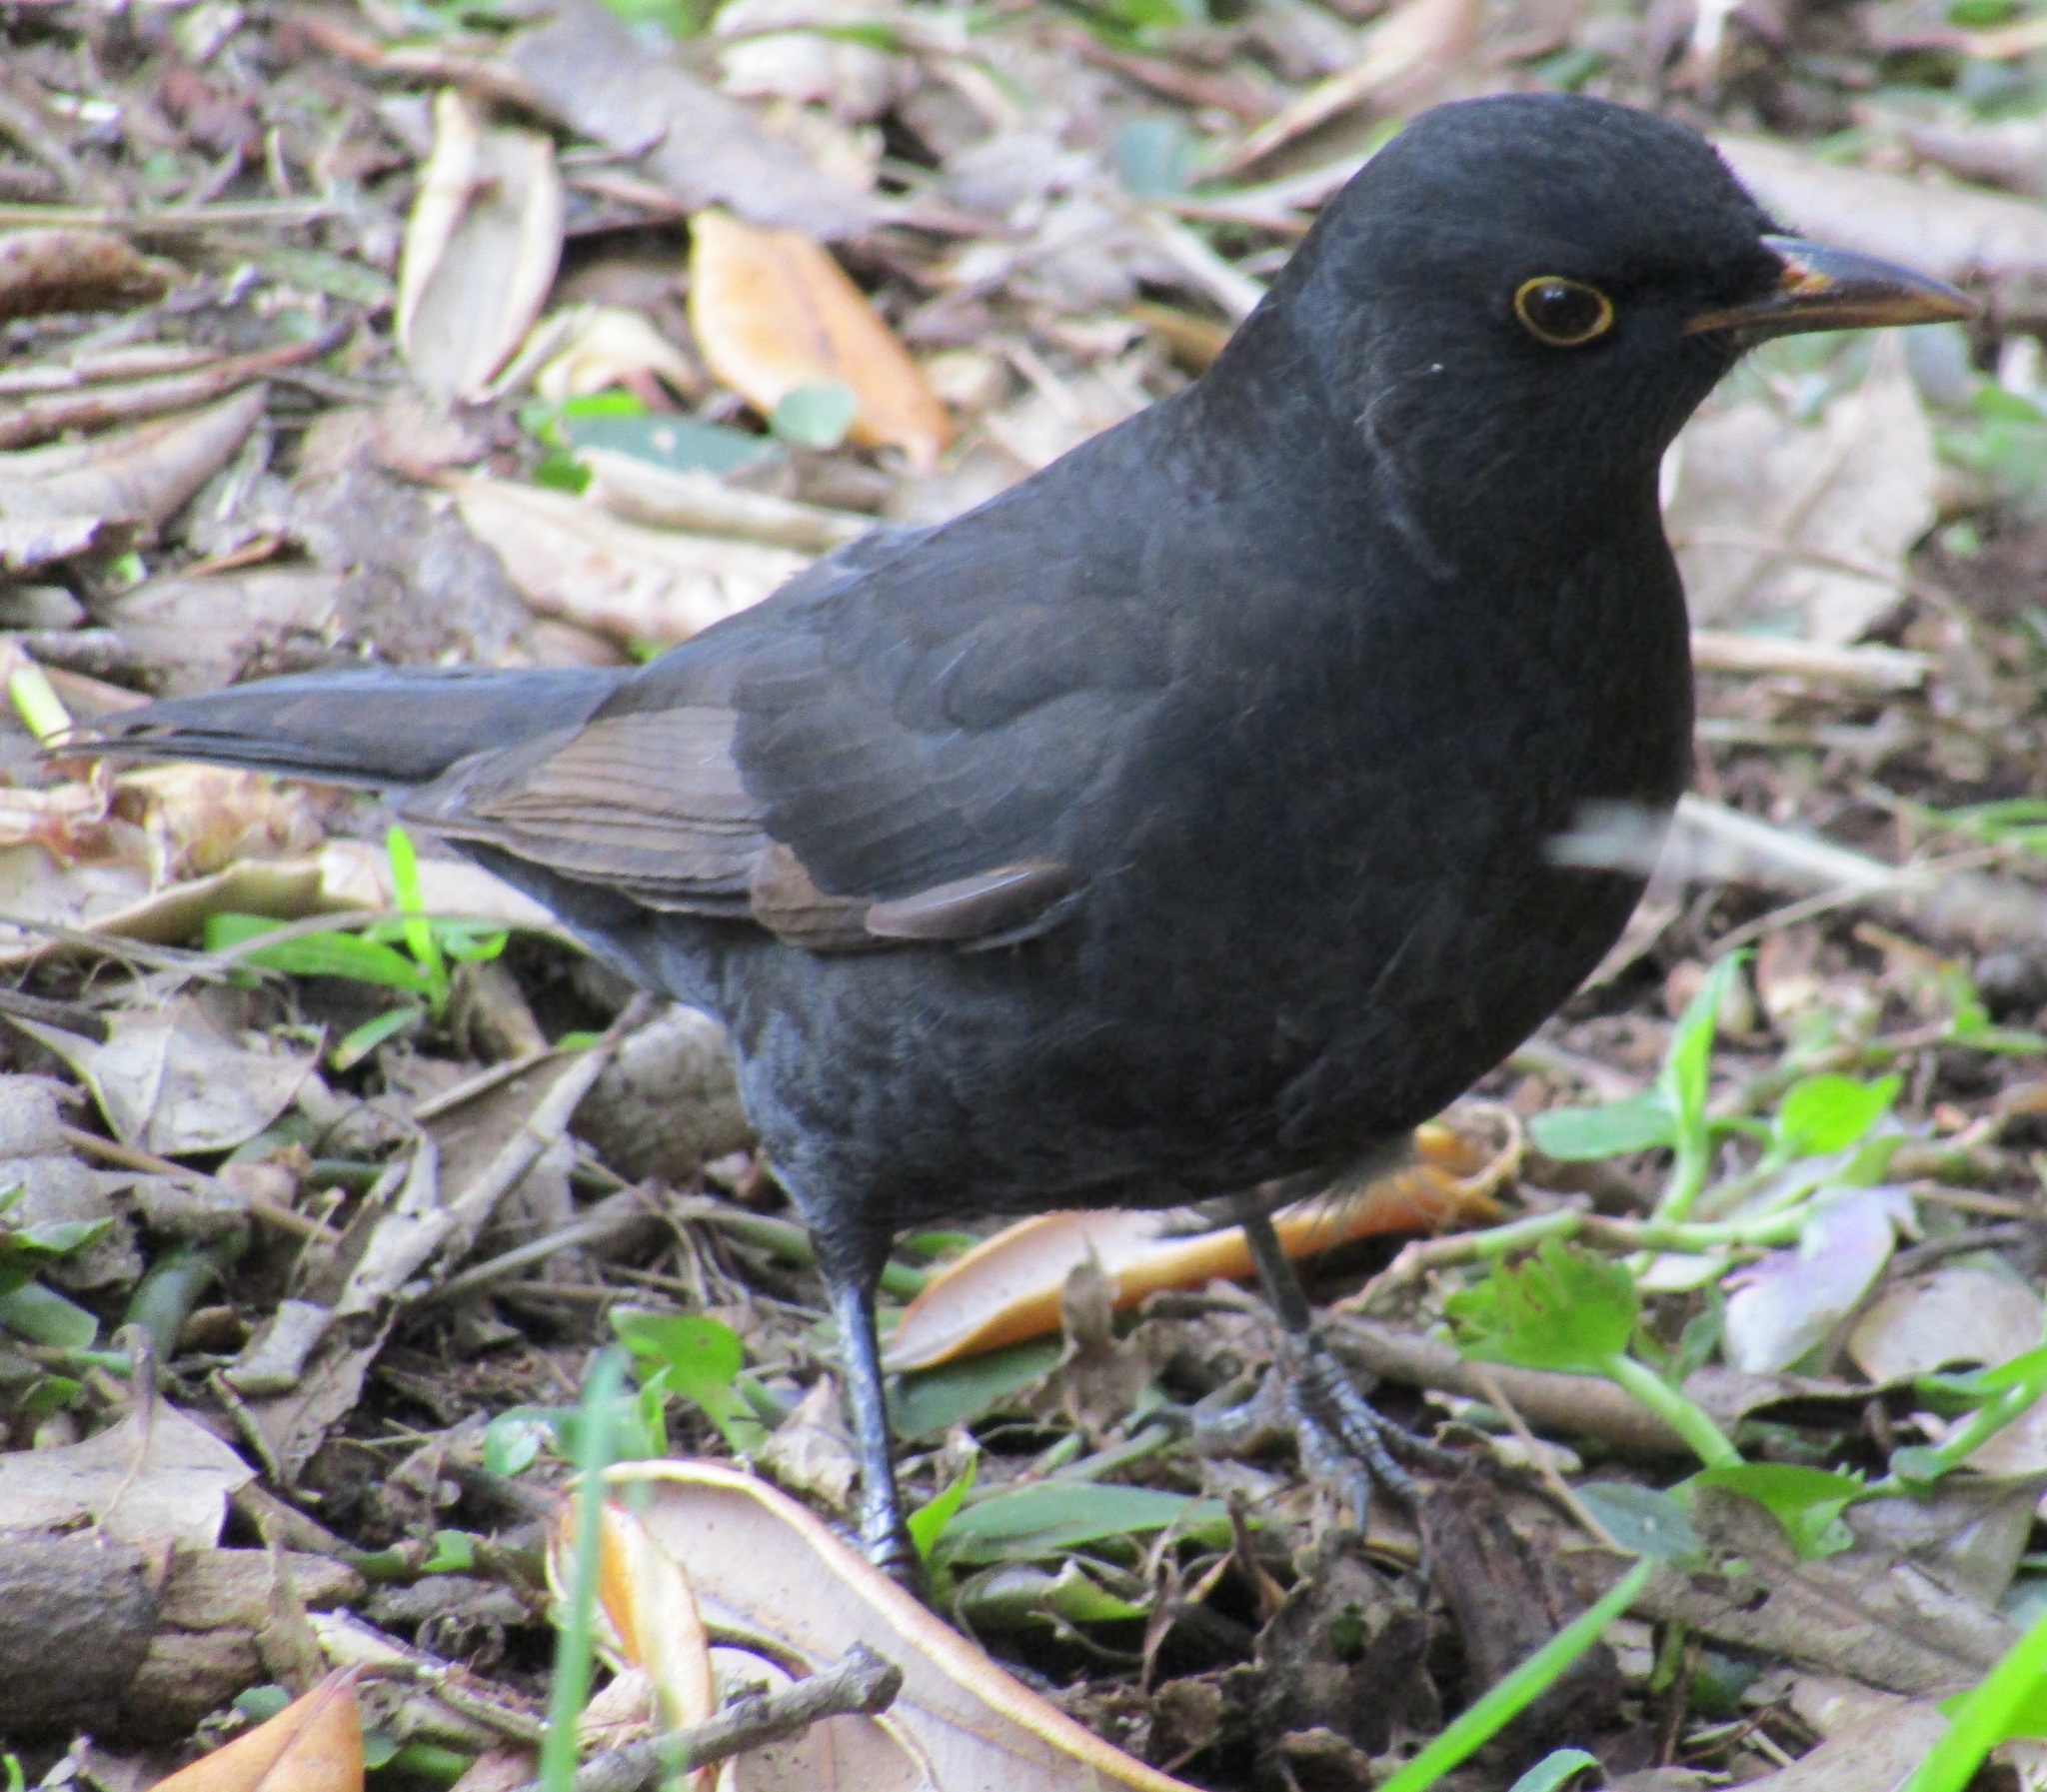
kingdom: Animalia
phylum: Chordata
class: Aves
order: Passeriformes
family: Turdidae
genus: Turdus
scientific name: Turdus merula
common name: Common blackbird
